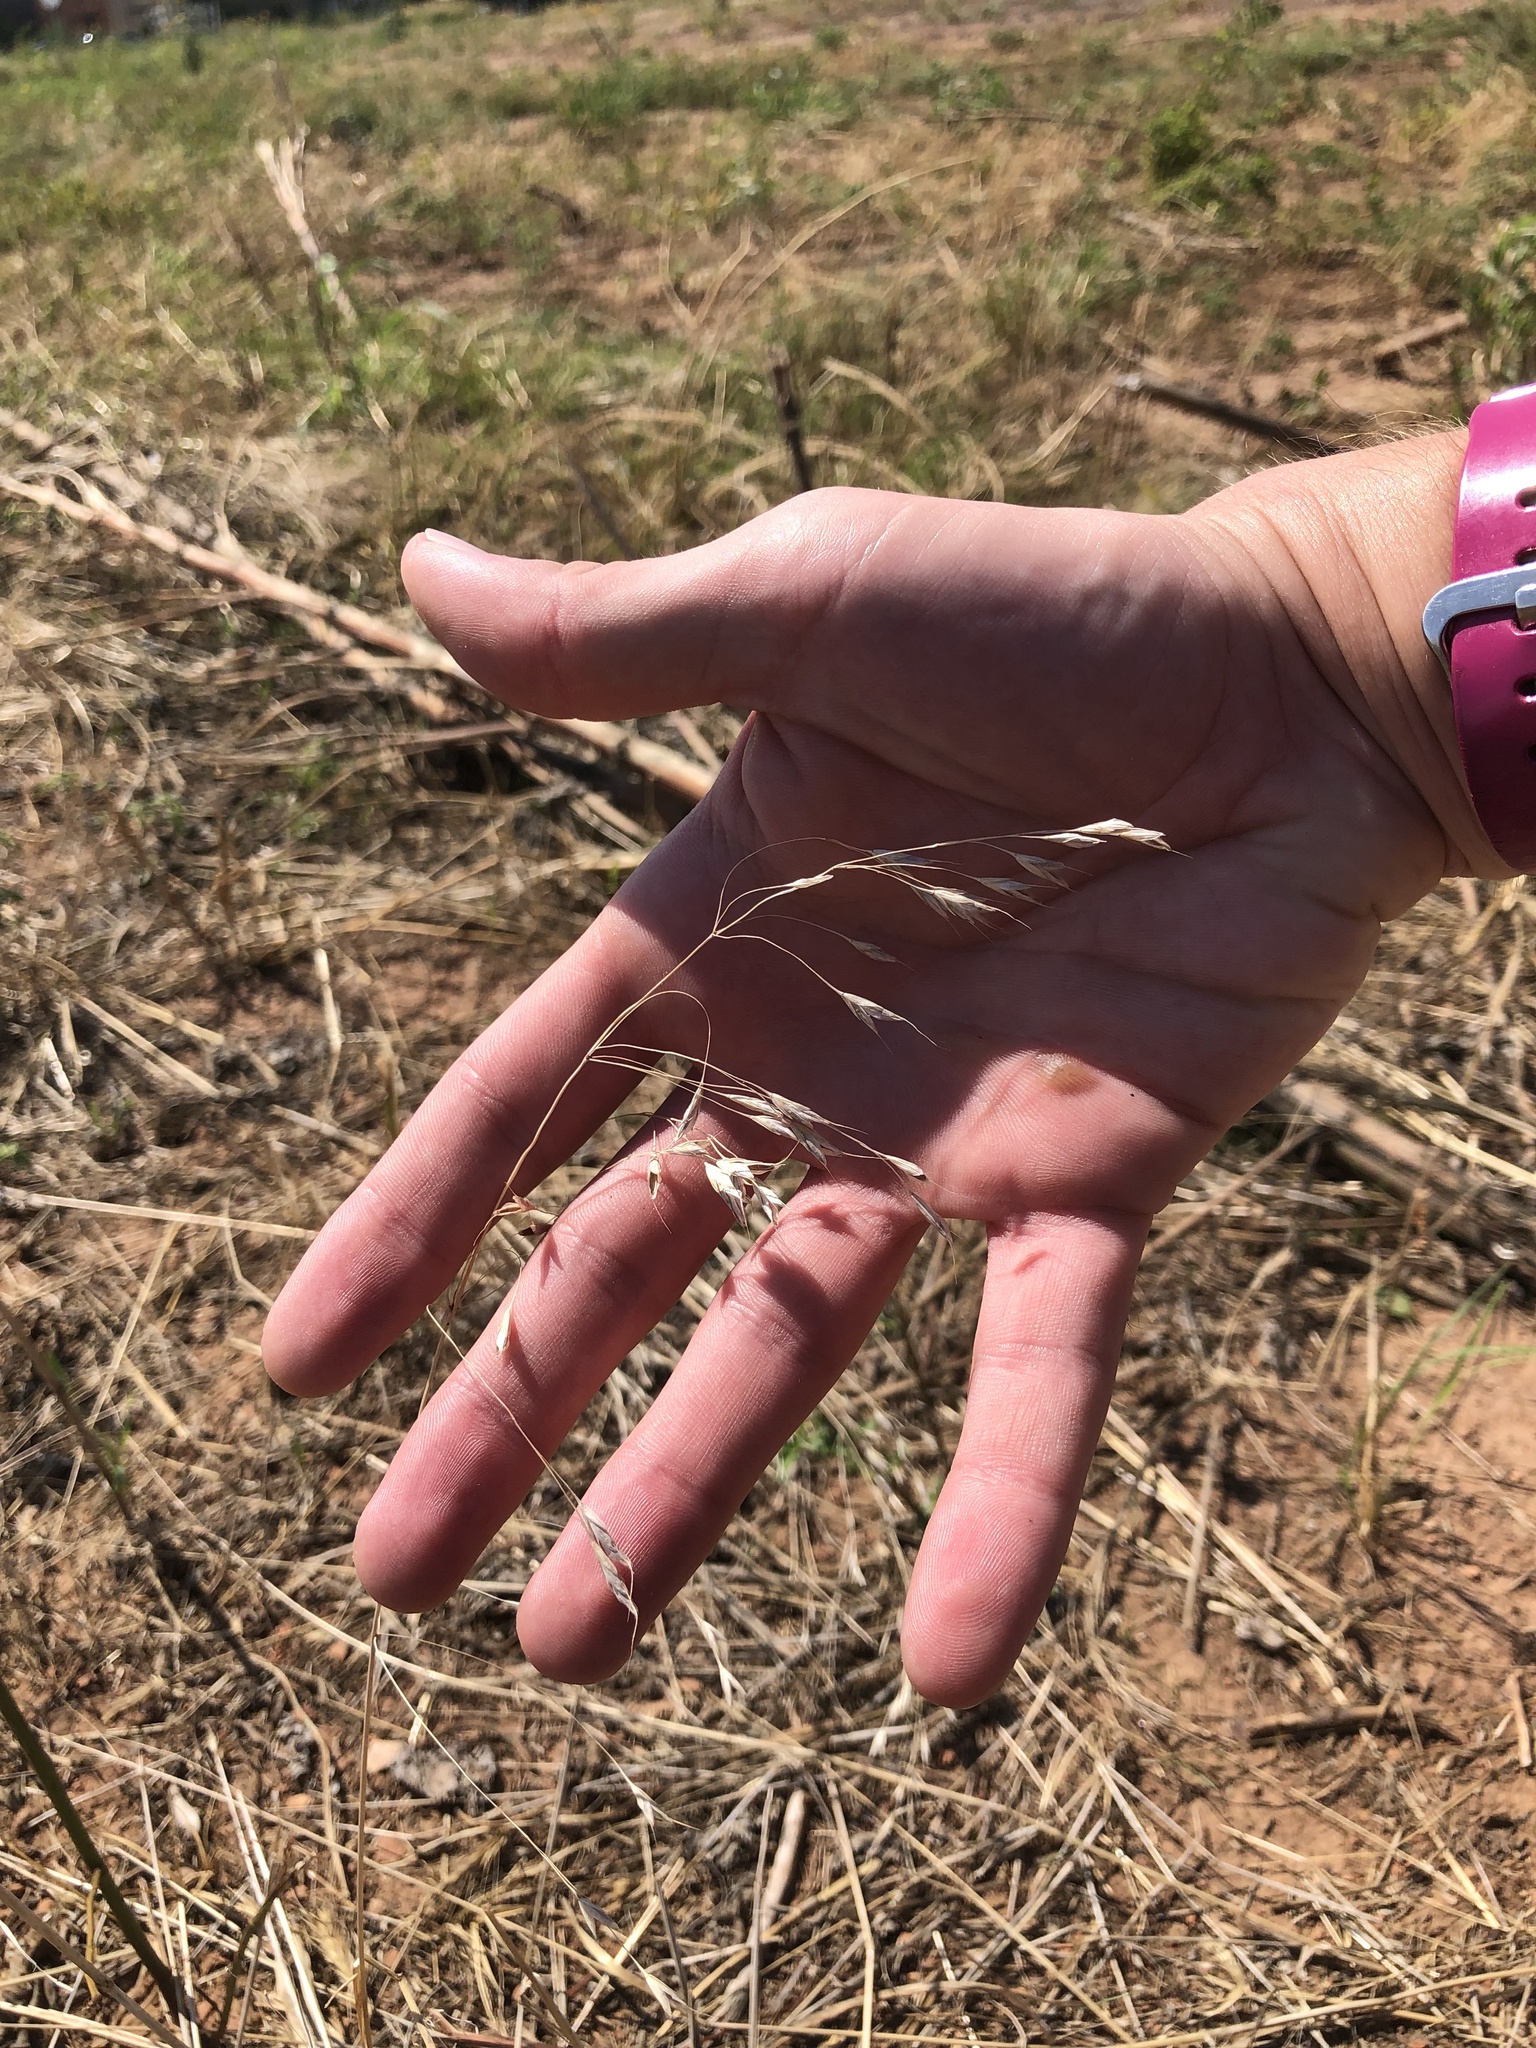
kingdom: Plantae
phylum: Tracheophyta
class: Liliopsida
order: Poales
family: Poaceae
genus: Bromus
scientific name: Bromus japonicus
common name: Japanese brome
